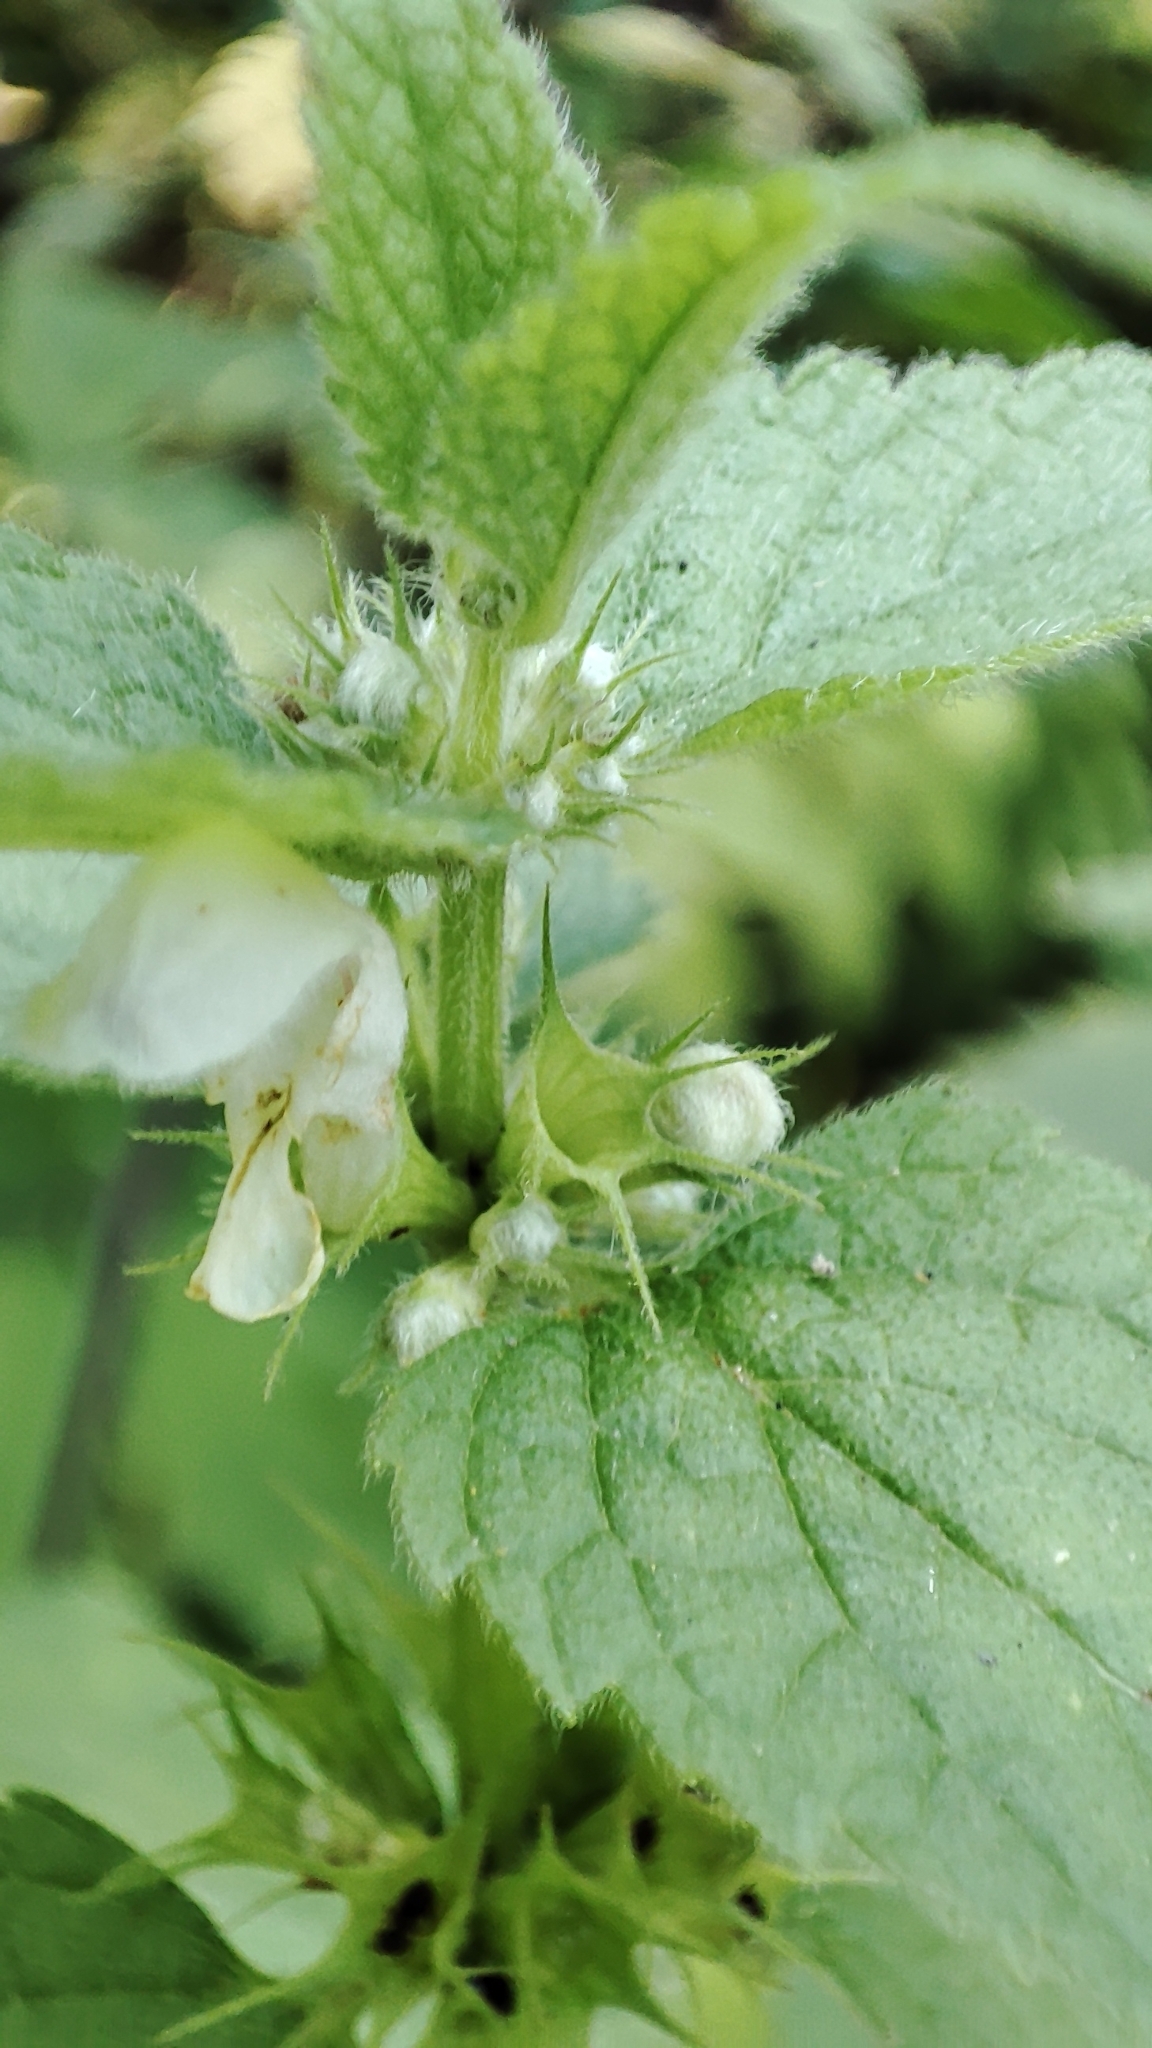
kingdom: Plantae
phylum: Tracheophyta
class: Magnoliopsida
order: Lamiales
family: Lamiaceae
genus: Lamium
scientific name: Lamium album
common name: White dead-nettle
